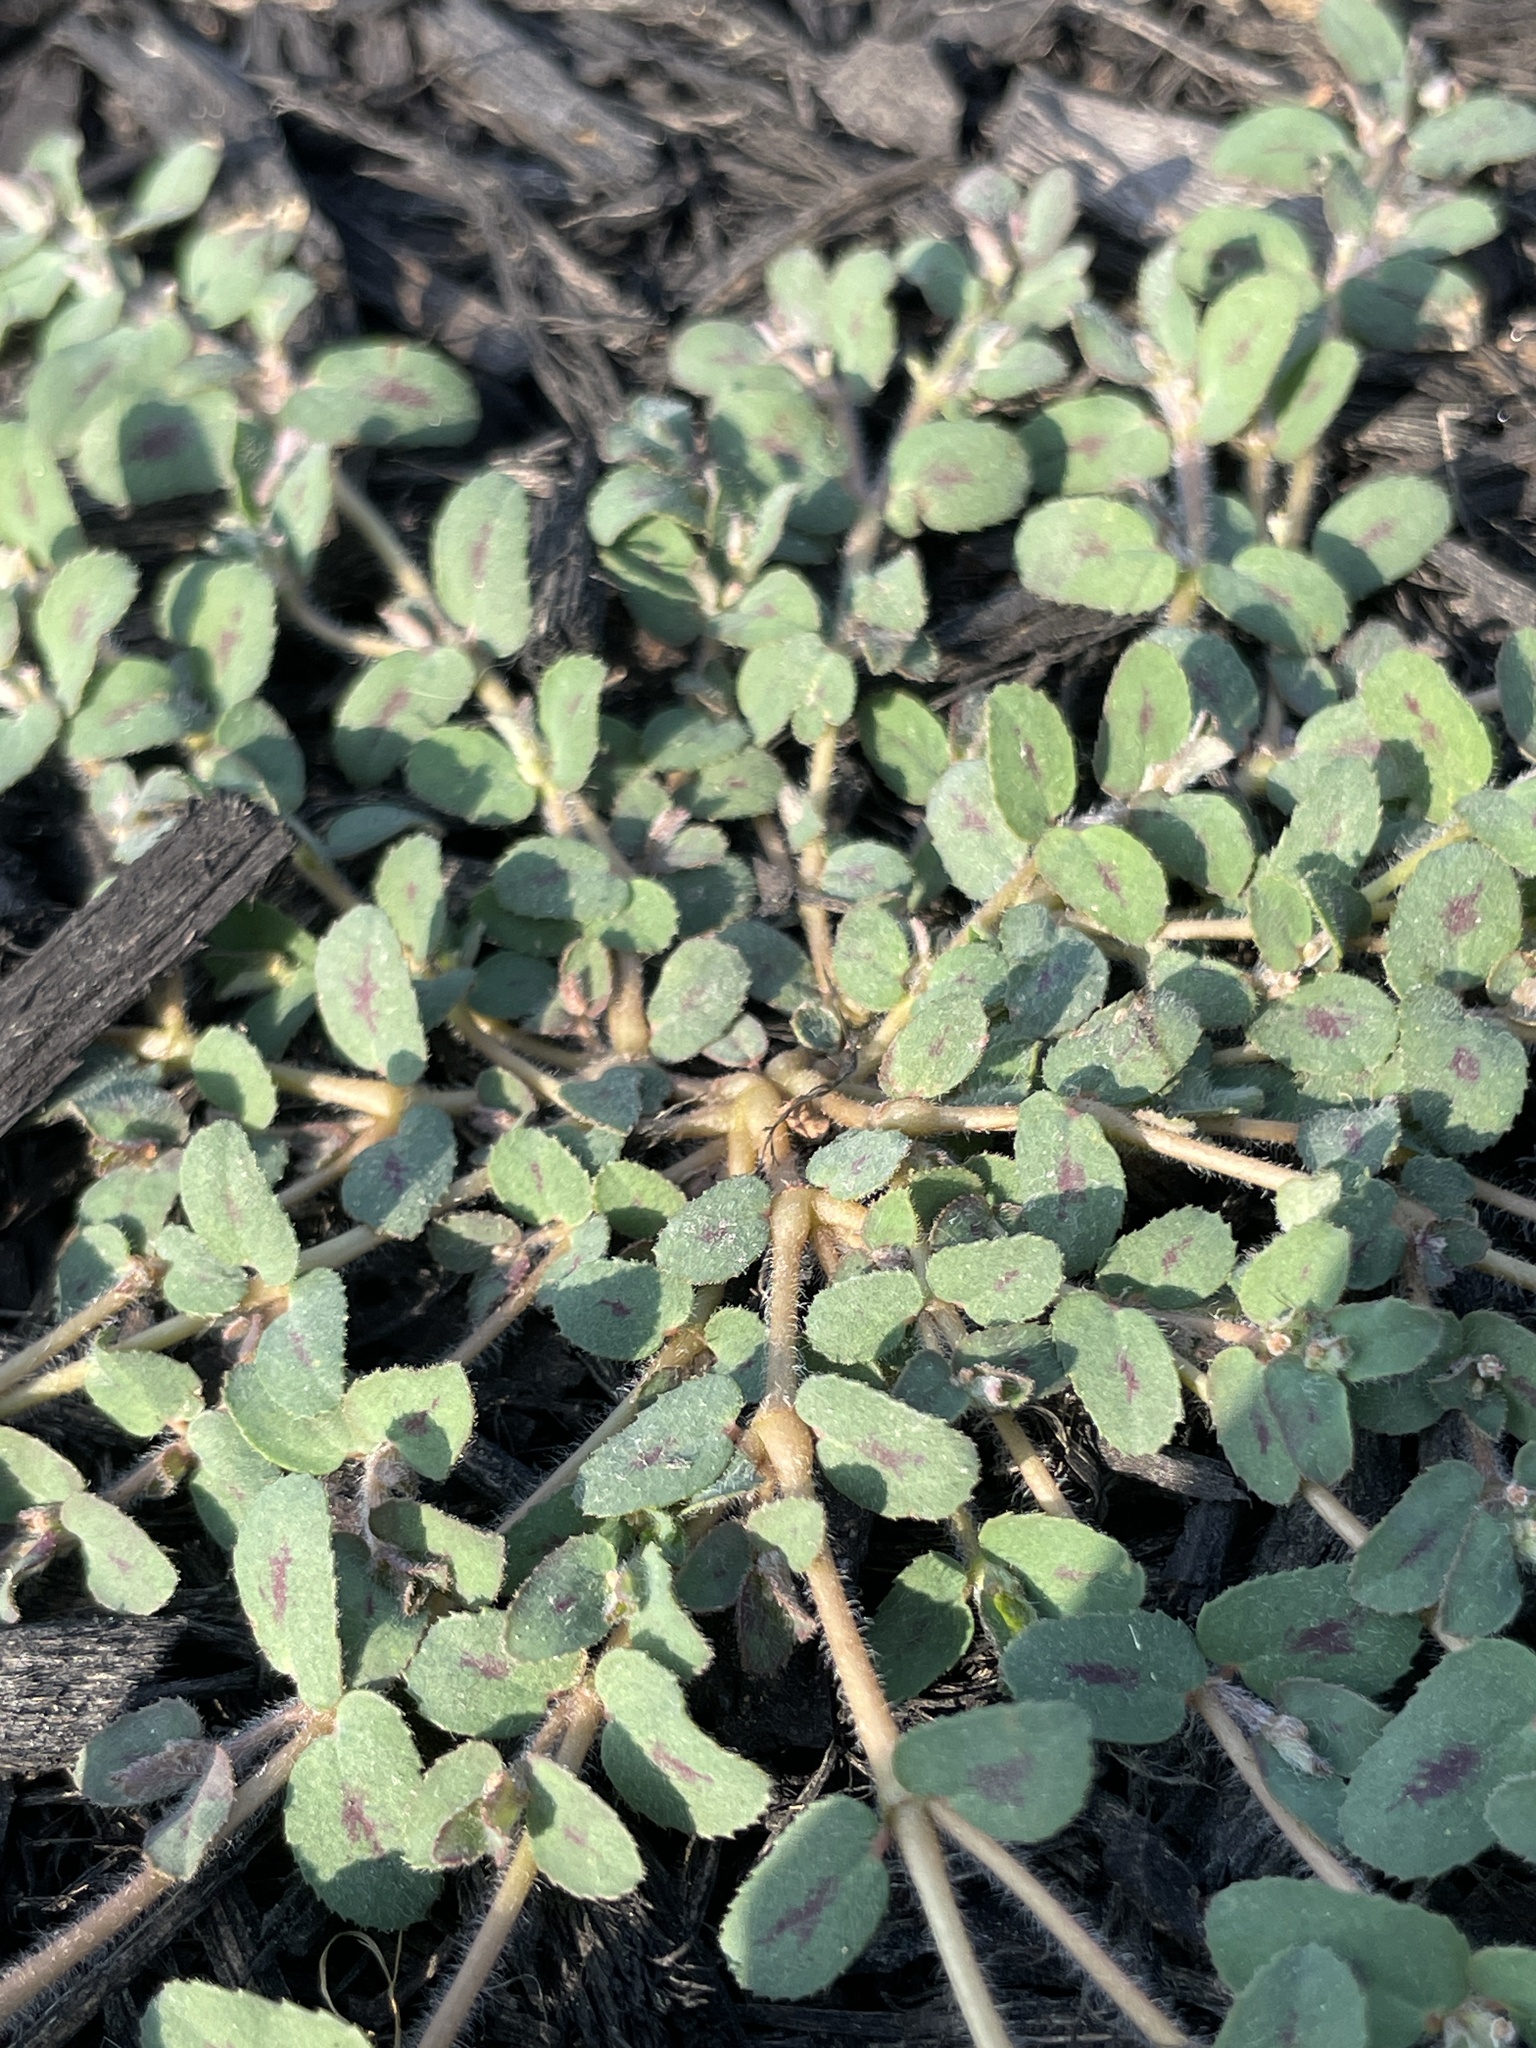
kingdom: Plantae
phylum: Tracheophyta
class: Magnoliopsida
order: Malpighiales
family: Euphorbiaceae
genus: Euphorbia
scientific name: Euphorbia maculata
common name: Spotted spurge
